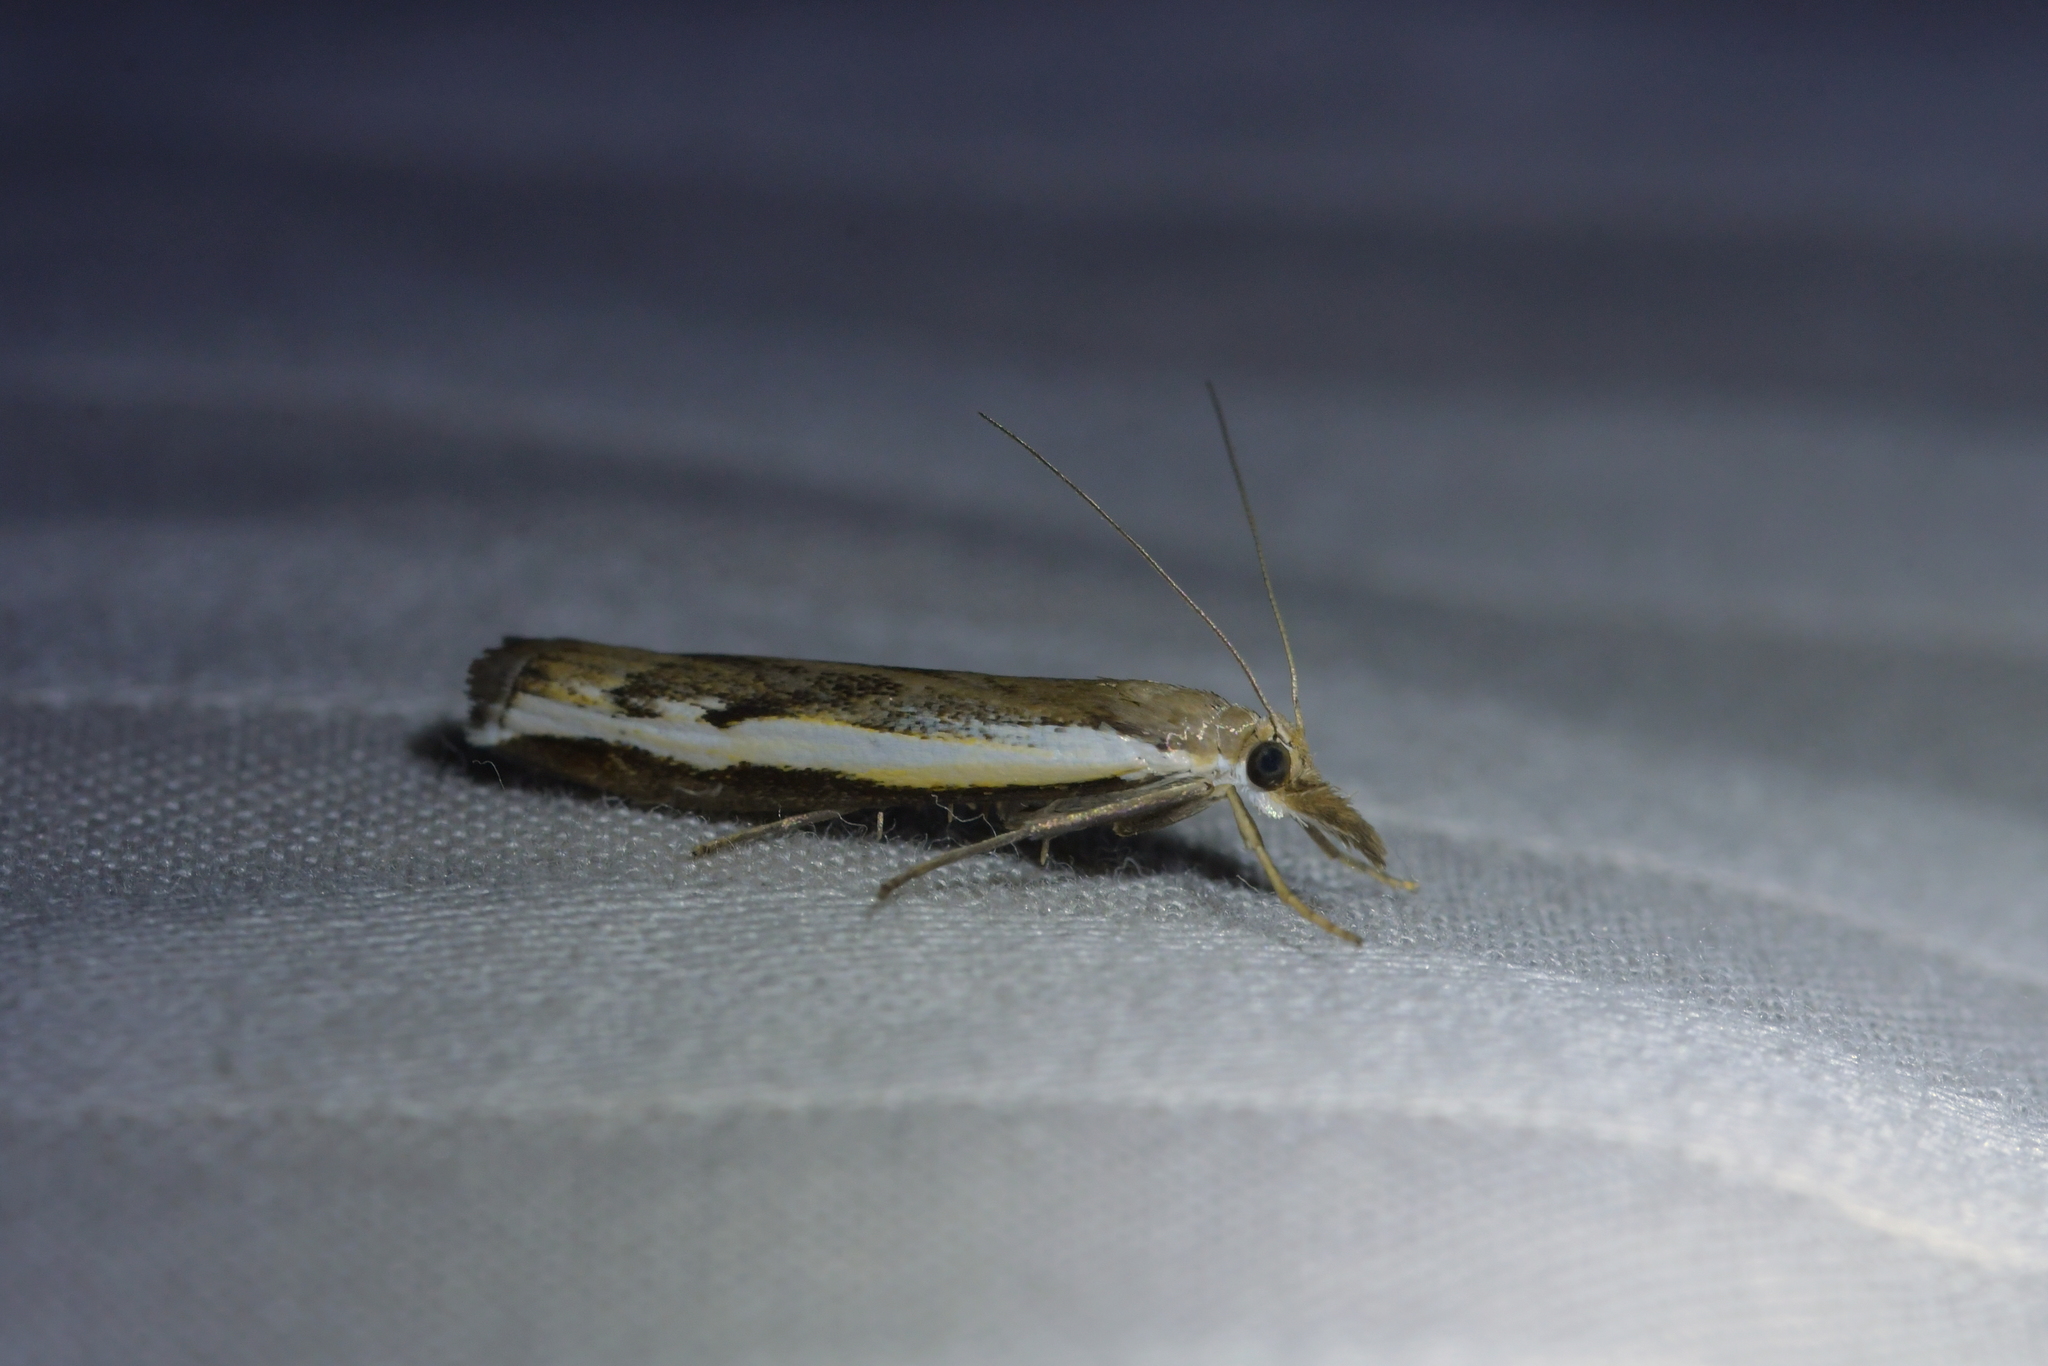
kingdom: Animalia
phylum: Arthropoda
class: Insecta
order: Lepidoptera
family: Crambidae
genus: Orocrambus
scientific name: Orocrambus flexuosellus
